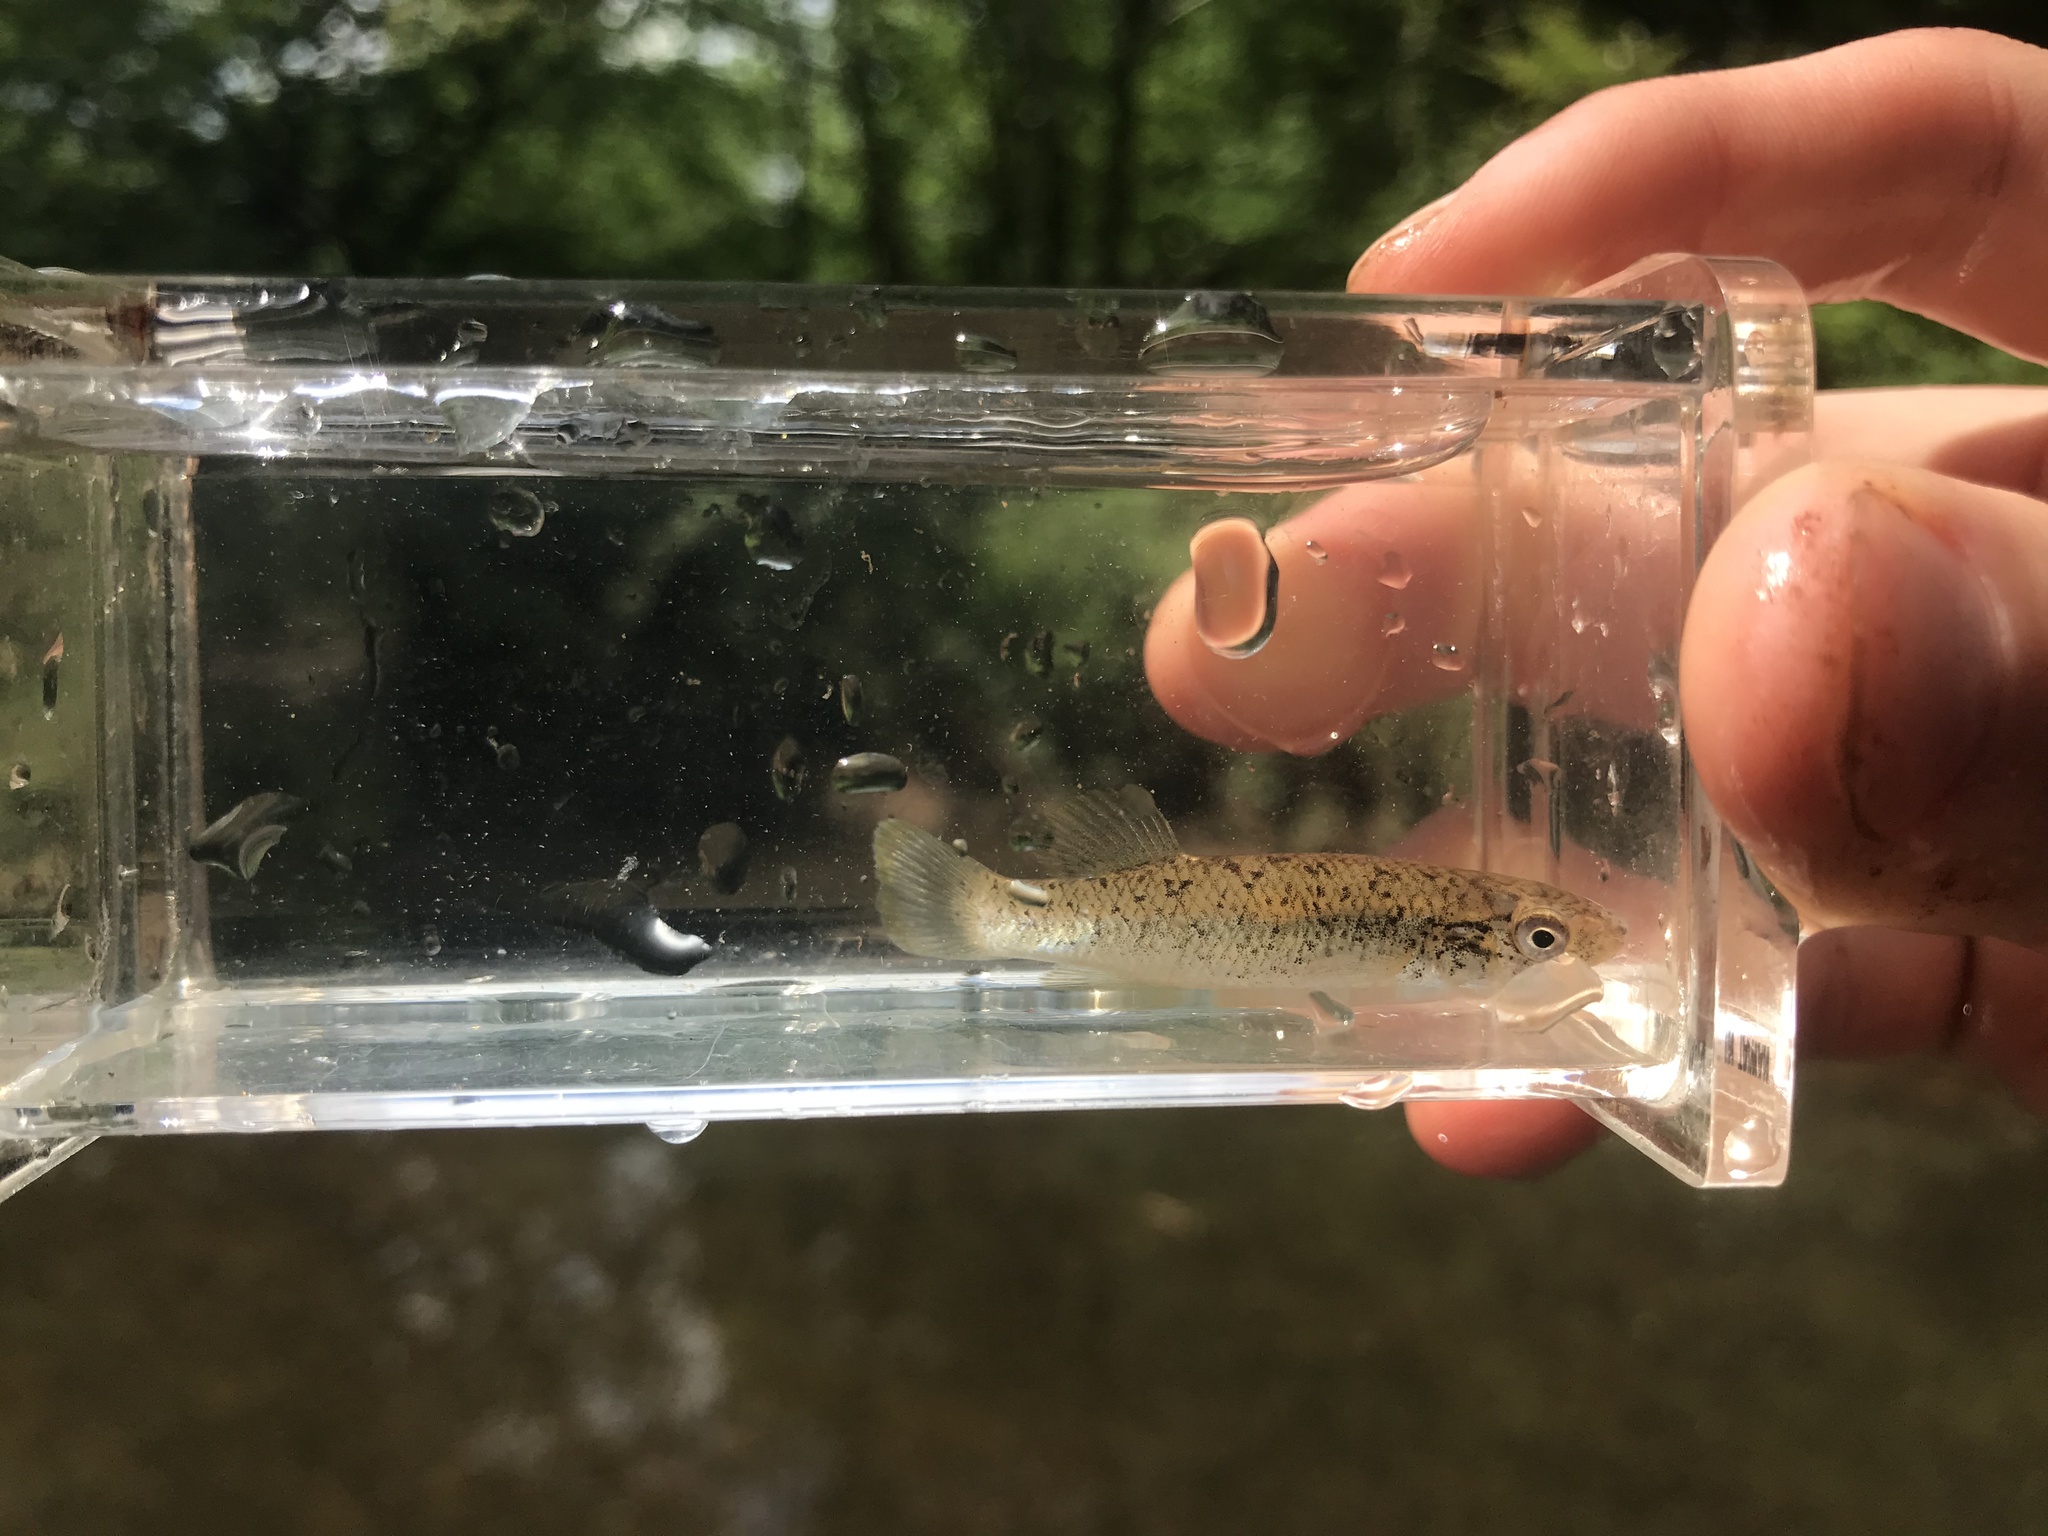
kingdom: Animalia
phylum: Chordata
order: Cyprinodontiformes
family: Fundulidae
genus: Fundulus
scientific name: Fundulus rathbuni
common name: Speckled killifish
